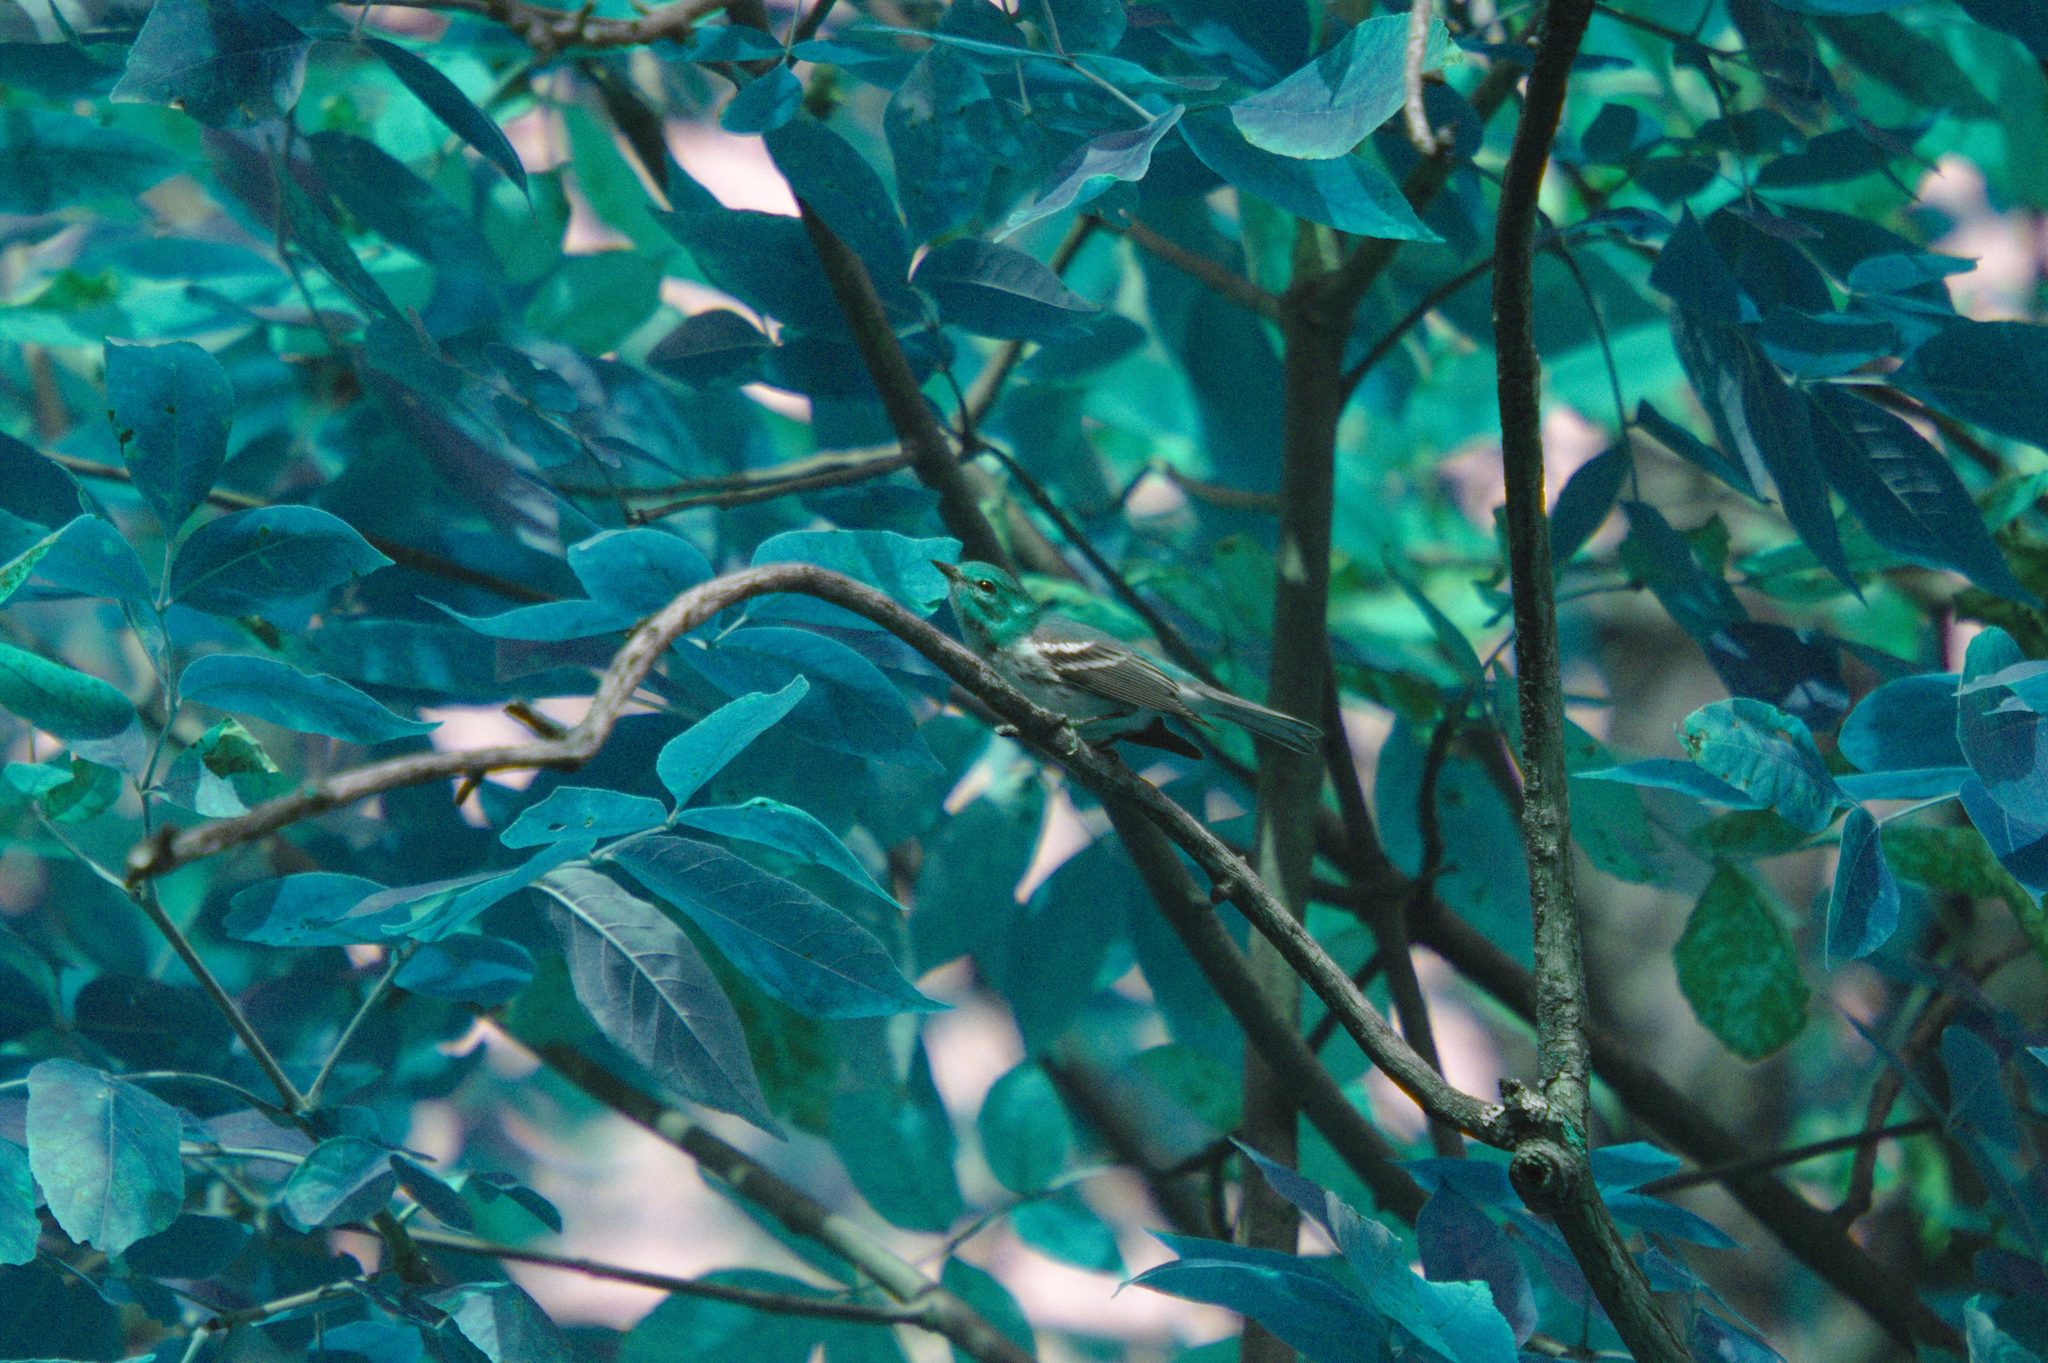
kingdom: Animalia
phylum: Chordata
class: Aves
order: Passeriformes
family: Parulidae
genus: Setophaga
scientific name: Setophaga virens
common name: Black-throated green warbler
